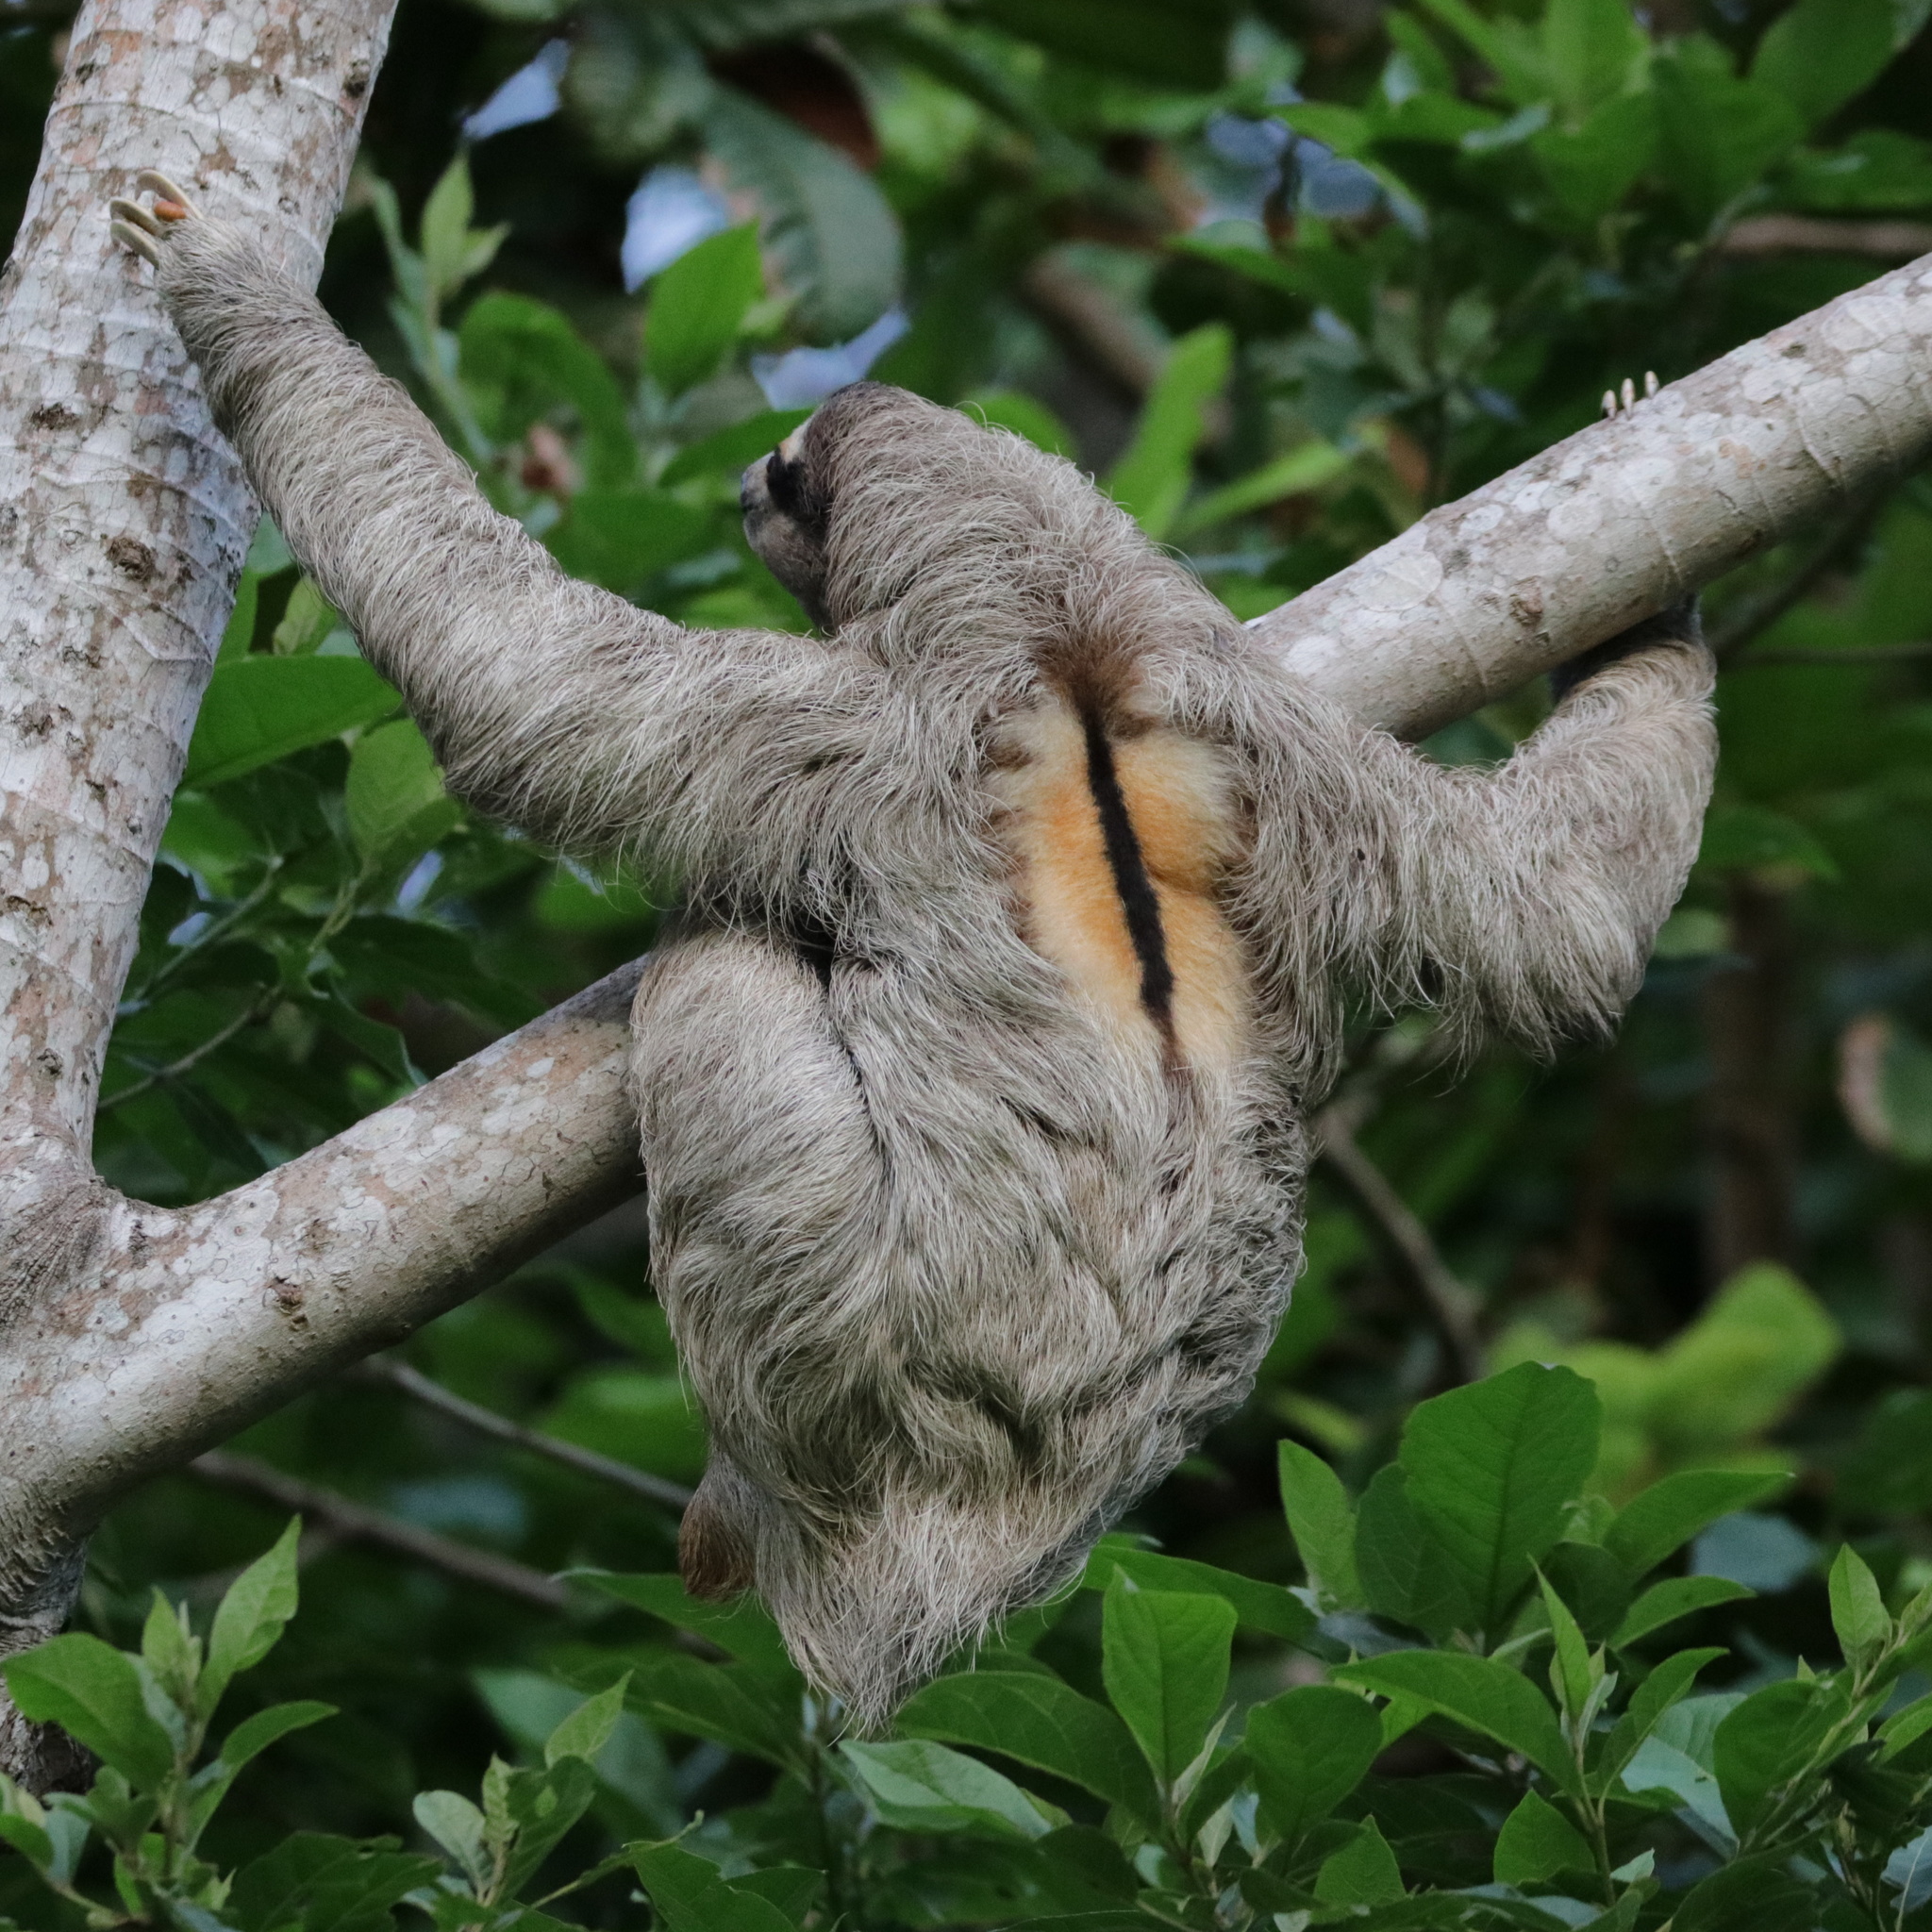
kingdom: Animalia
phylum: Chordata
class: Mammalia
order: Pilosa
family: Bradypodidae
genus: Bradypus
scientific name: Bradypus variegatus
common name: Brown-throated three-toed sloth
